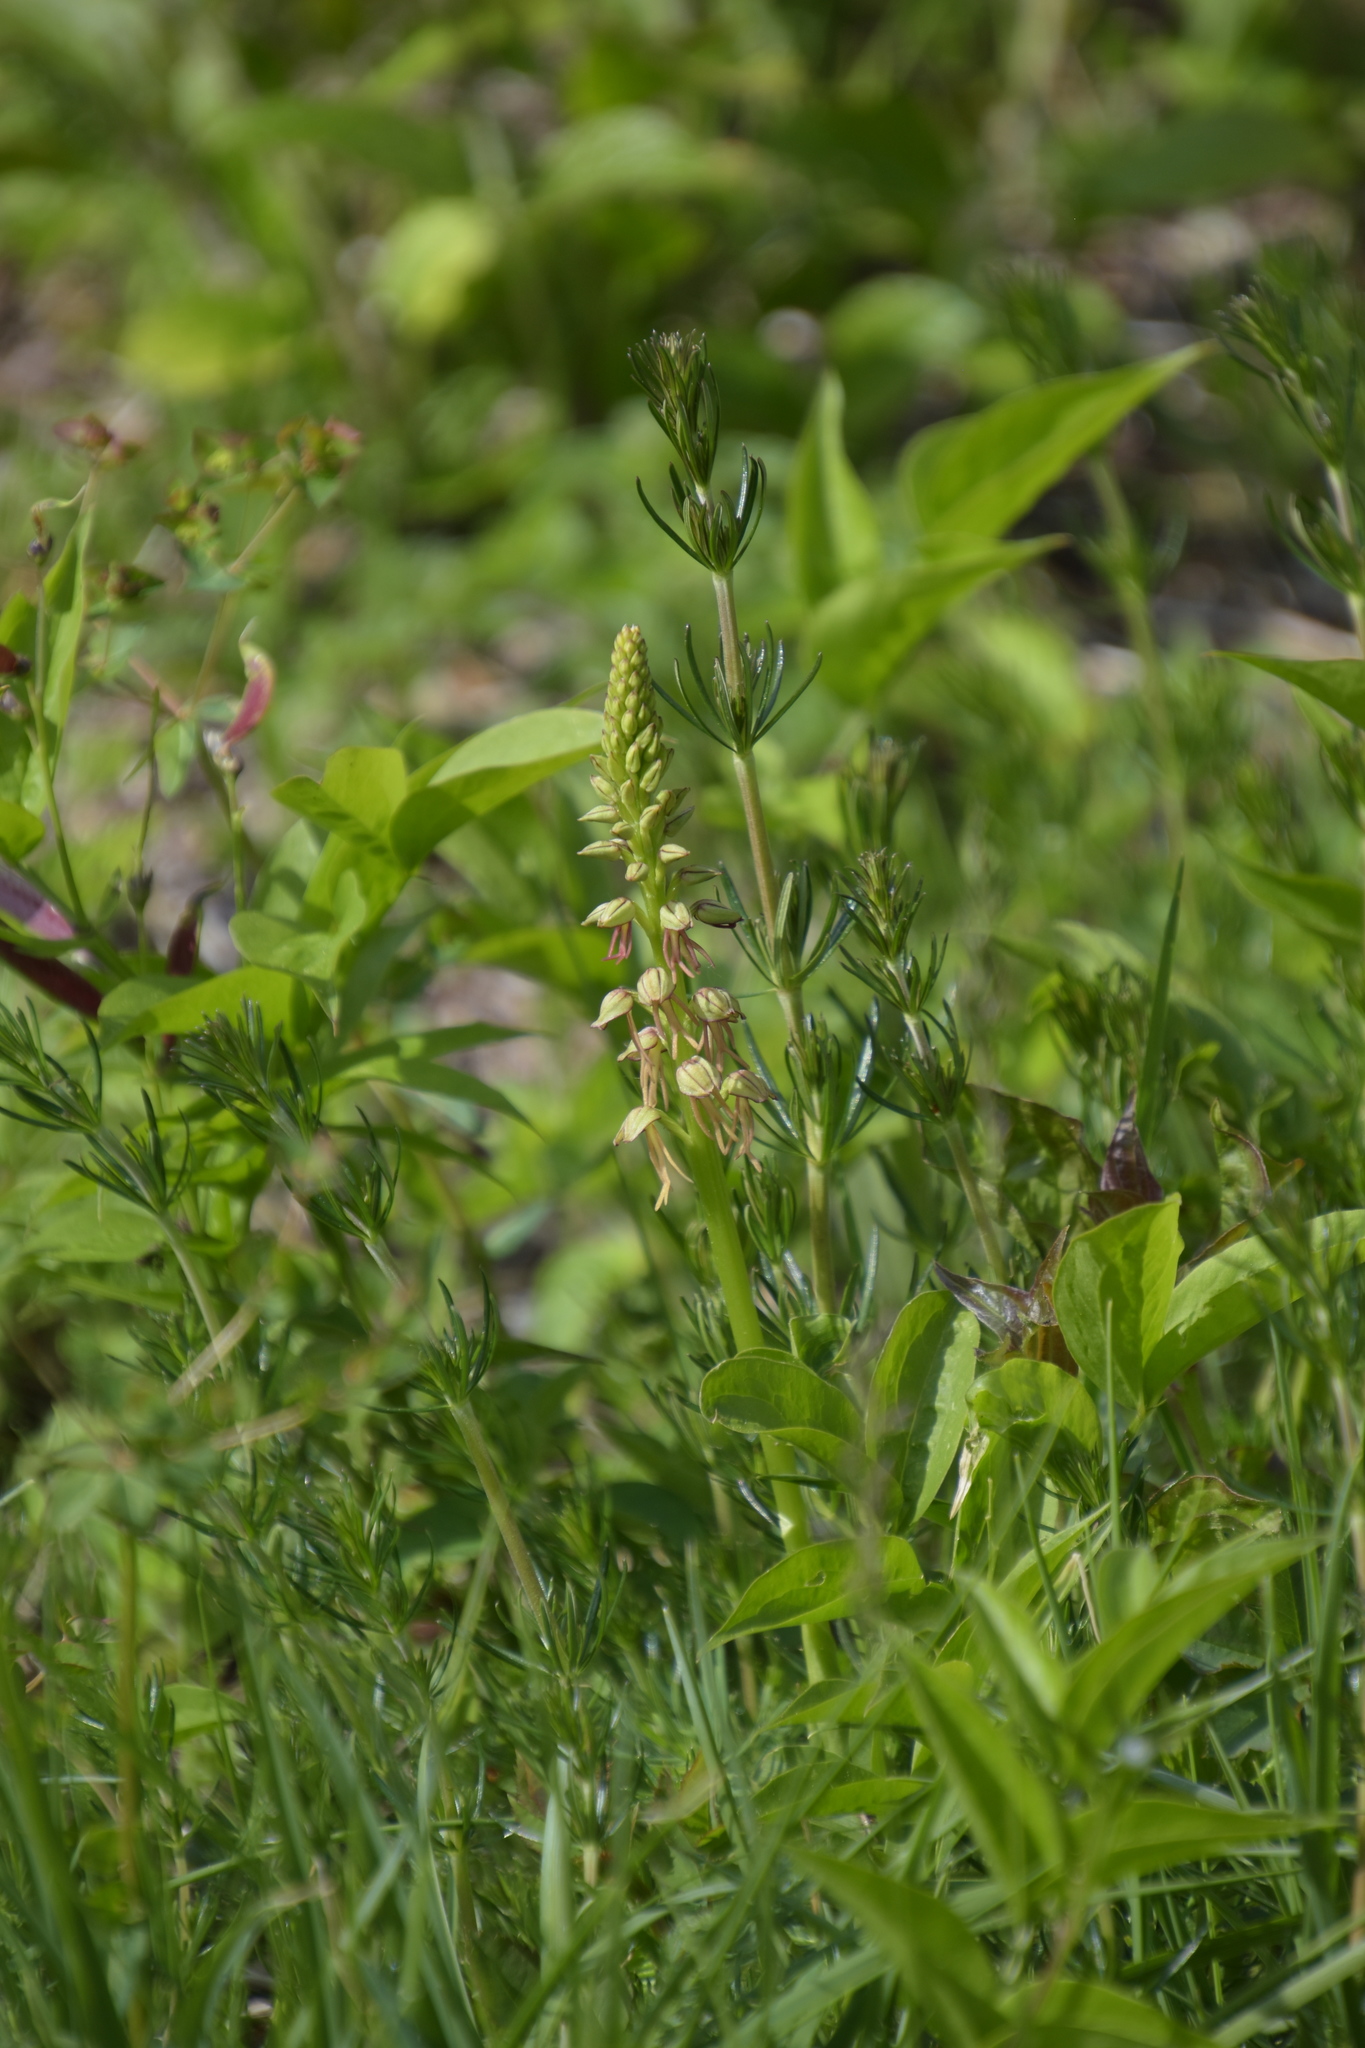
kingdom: Plantae
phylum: Tracheophyta
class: Liliopsida
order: Asparagales
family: Orchidaceae
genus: Orchis
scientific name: Orchis anthropophora
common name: Man orchid
